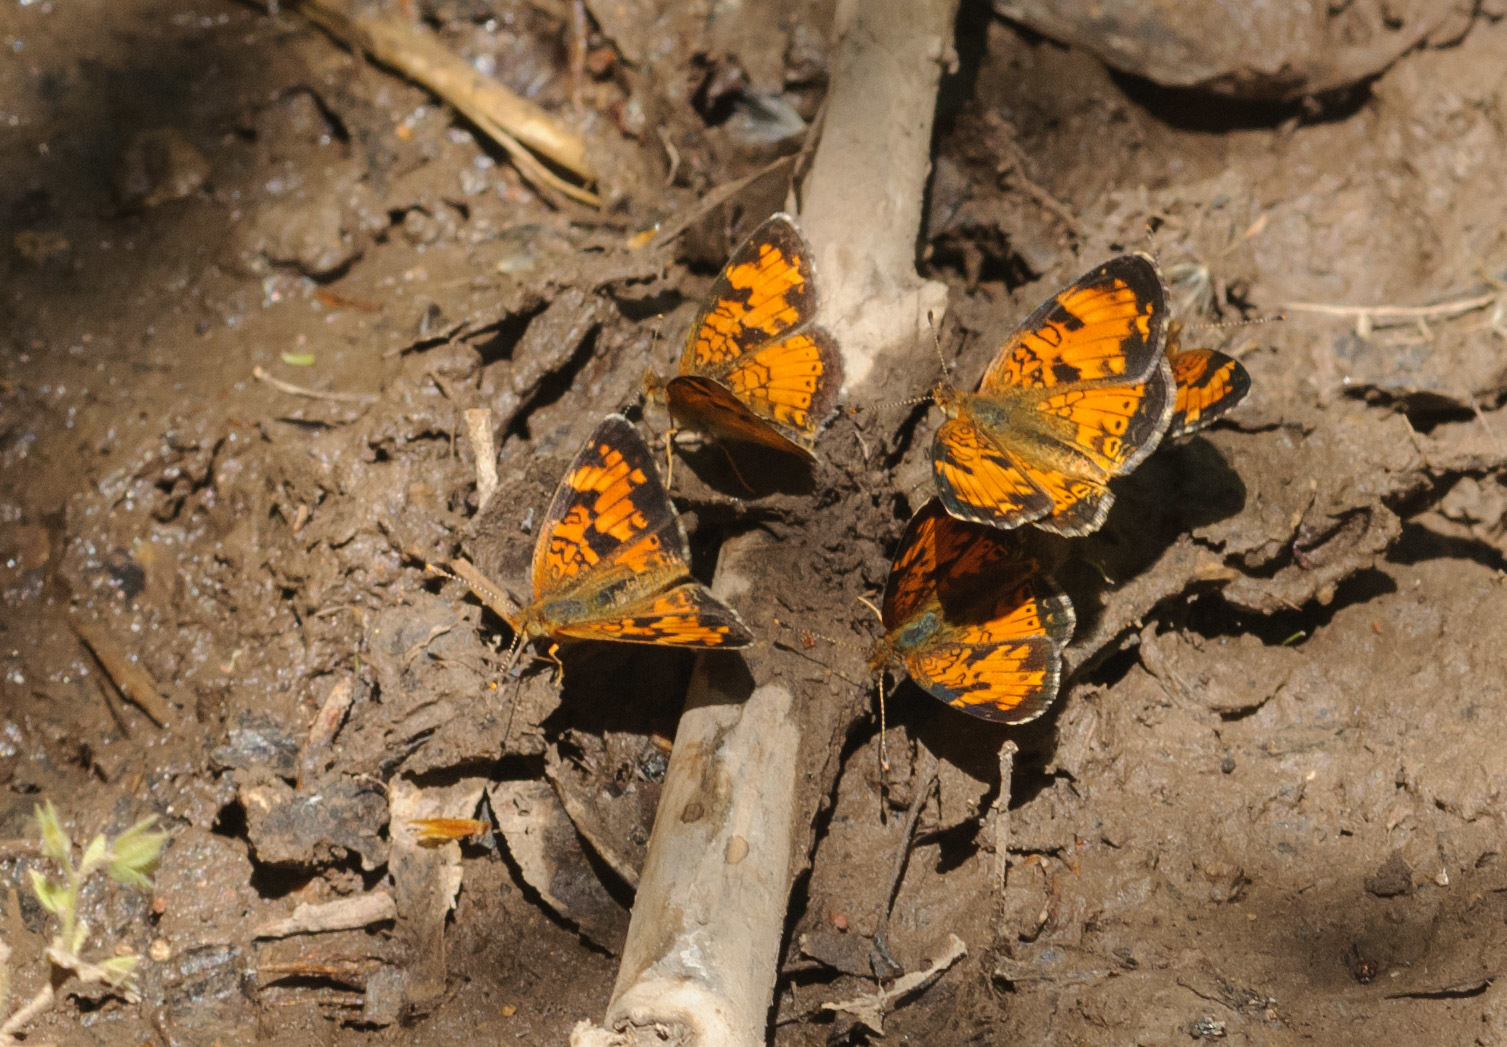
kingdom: Animalia
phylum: Arthropoda
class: Insecta
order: Lepidoptera
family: Nymphalidae
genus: Phyciodes
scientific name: Phyciodes tharos
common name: Pearl crescent
